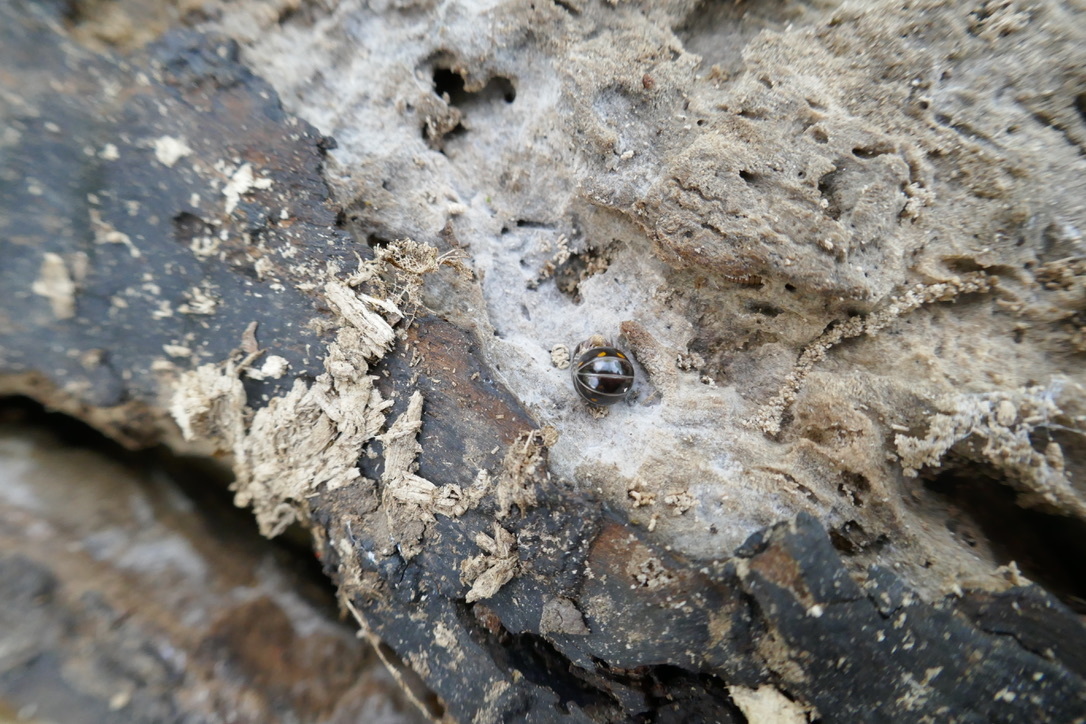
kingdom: Animalia
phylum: Arthropoda
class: Diplopoda
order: Glomerida
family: Glomeridae
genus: Glomeris
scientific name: Glomeris pustulata
